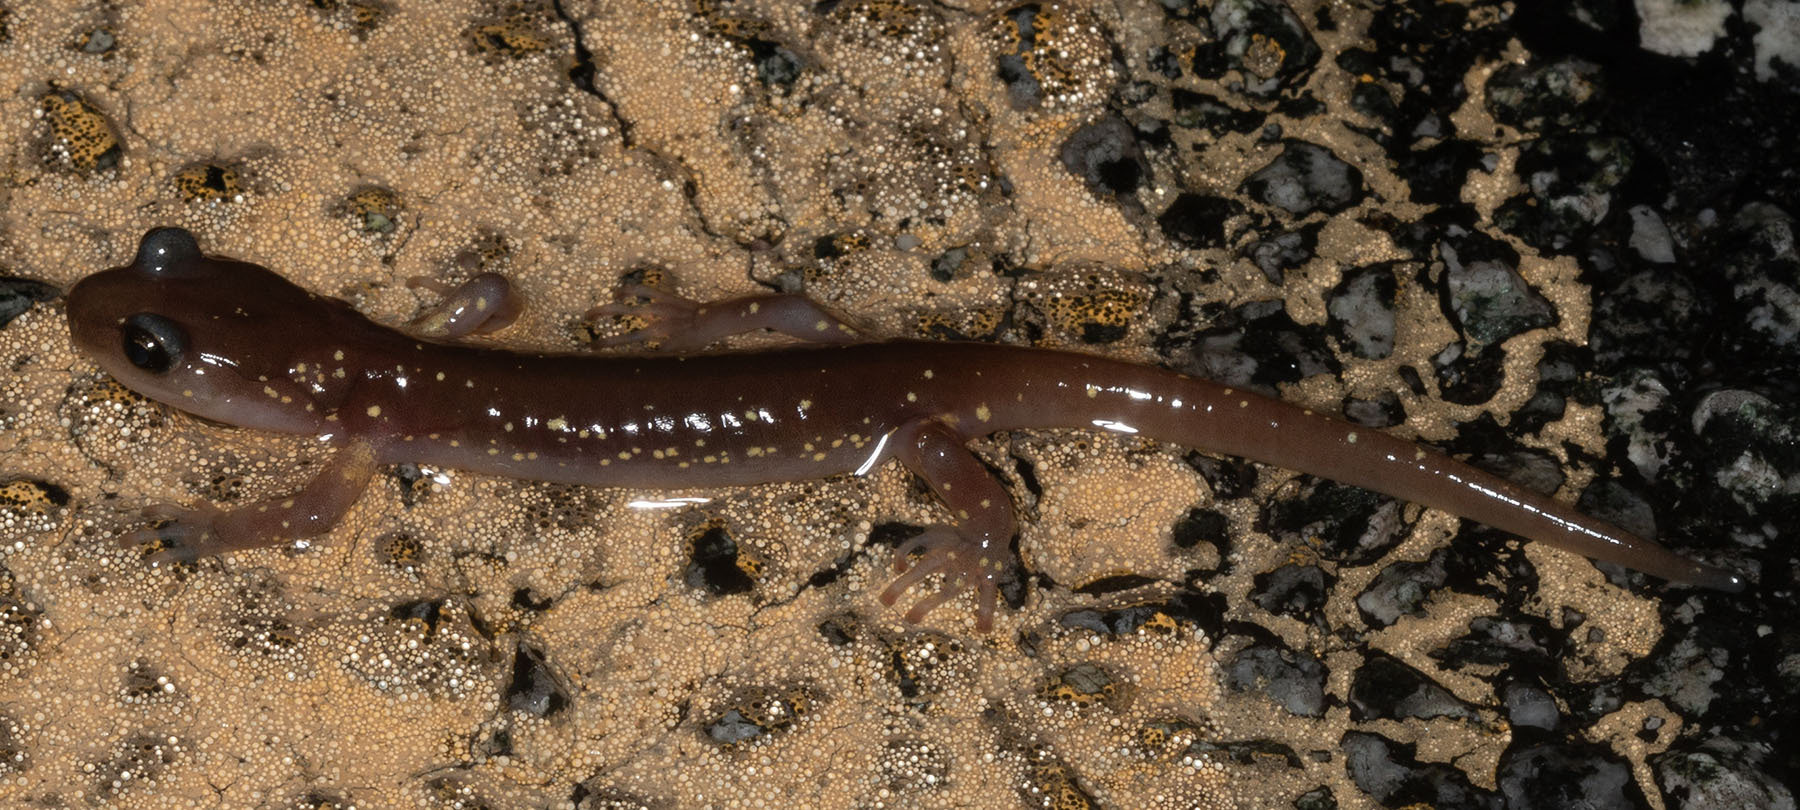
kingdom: Animalia
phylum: Chordata
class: Amphibia
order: Caudata
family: Plethodontidae
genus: Aneides
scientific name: Aneides lugubris
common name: Arboreal salamander
